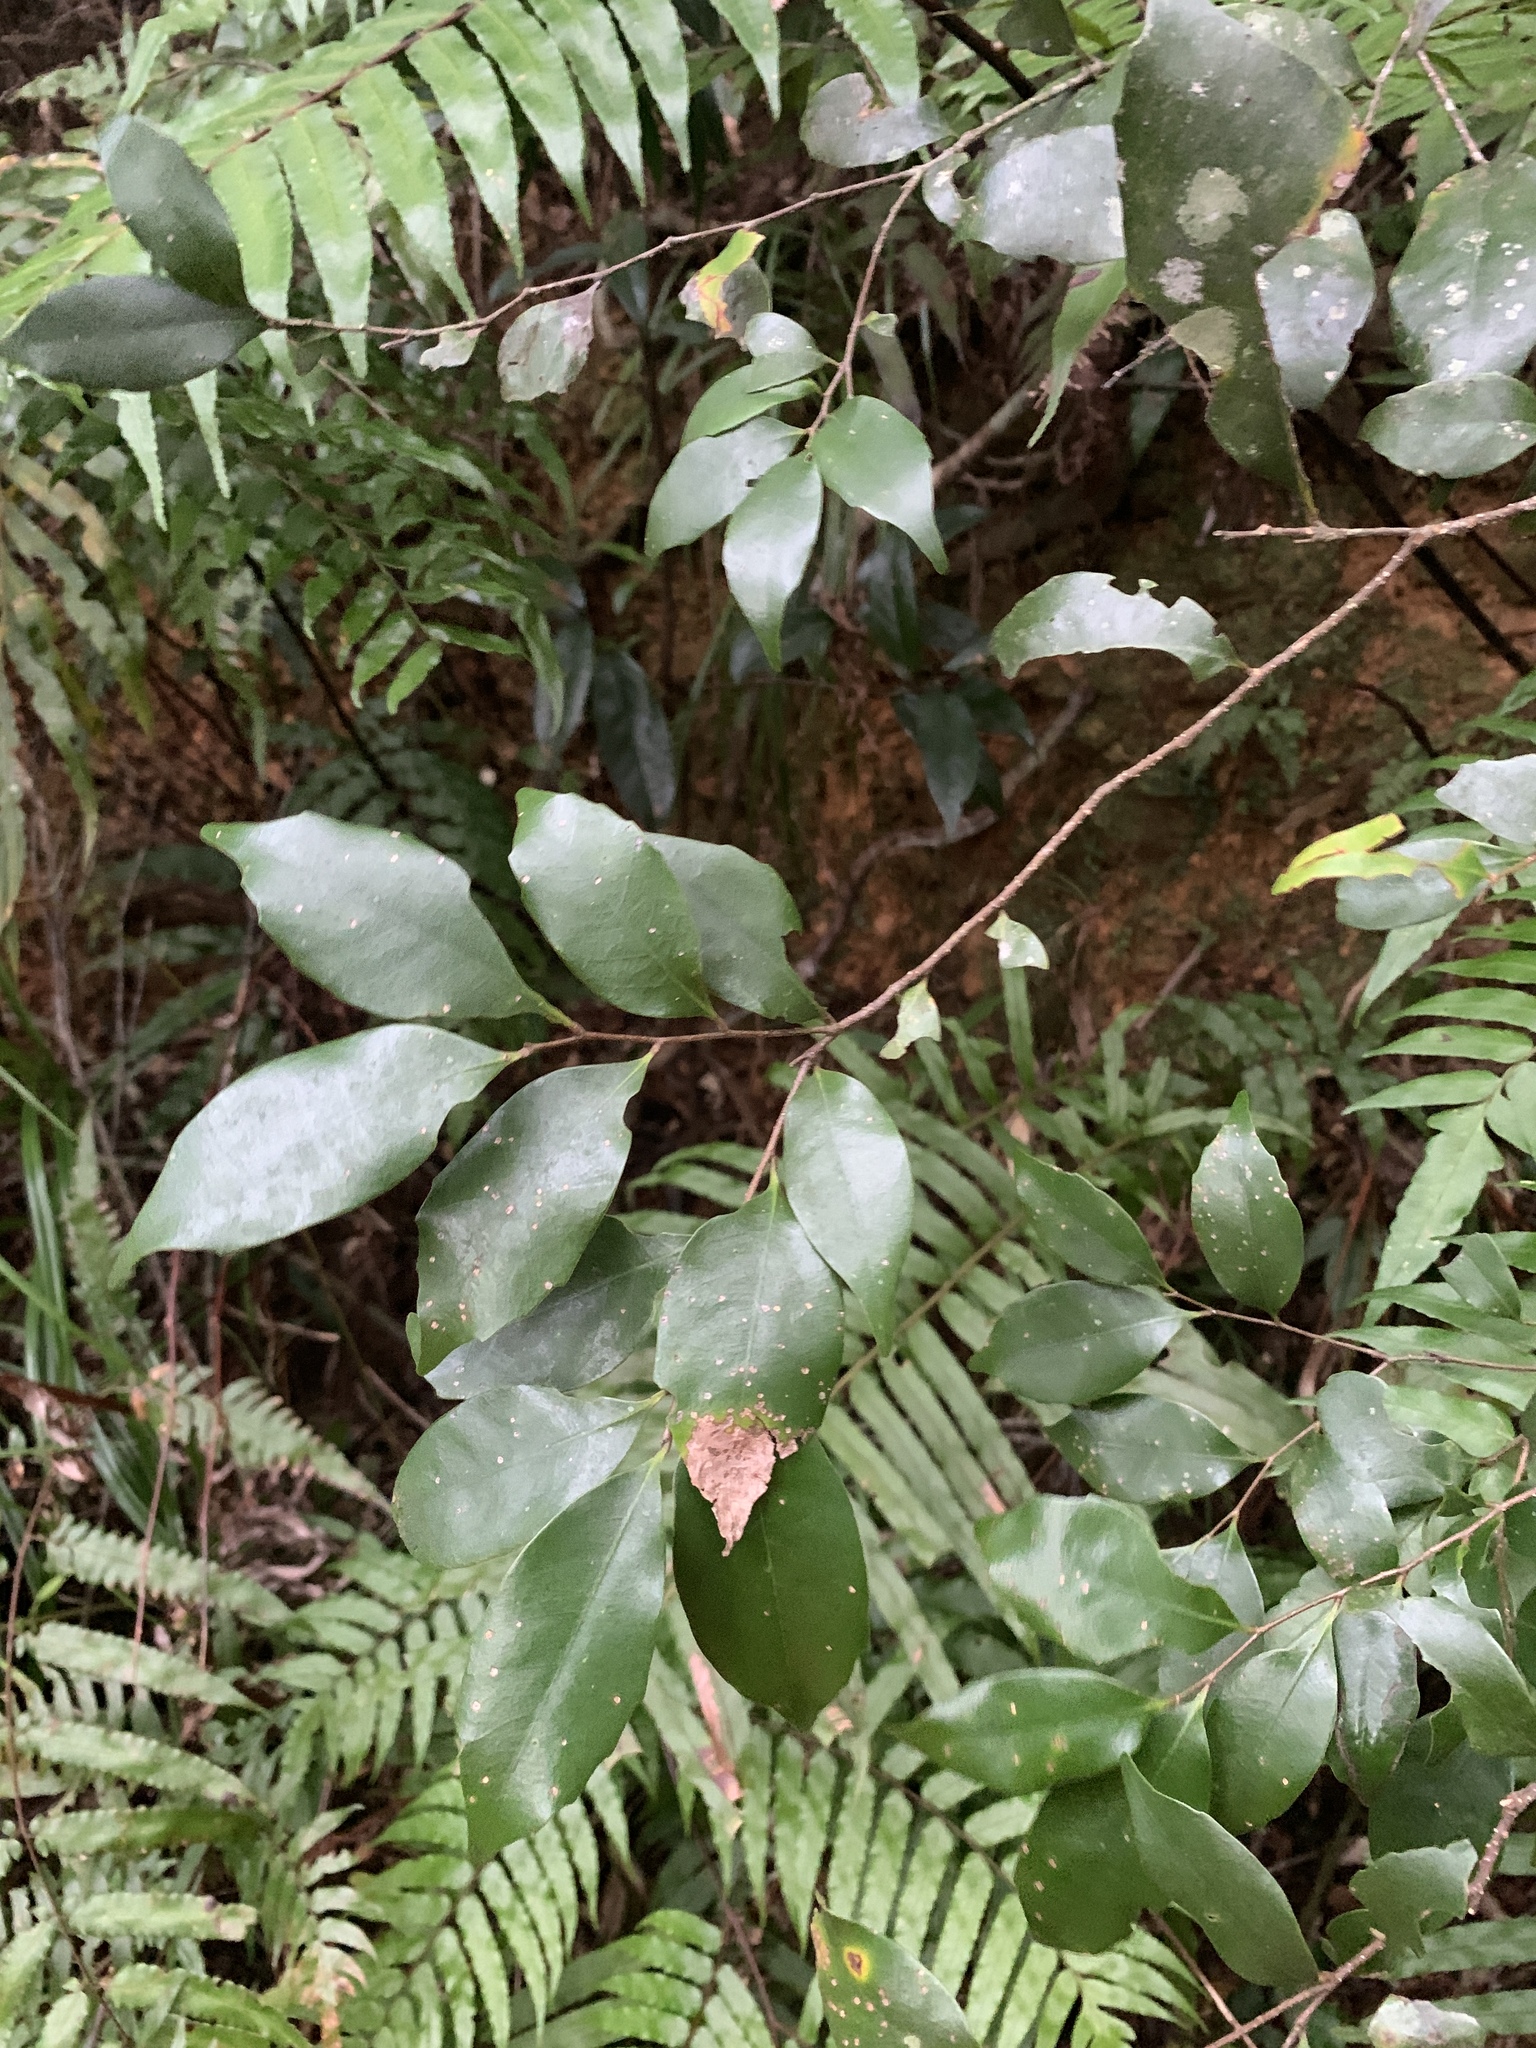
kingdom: Plantae
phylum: Tracheophyta
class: Magnoliopsida
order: Fagales
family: Fagaceae
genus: Castanopsis
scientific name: Castanopsis carlesii
